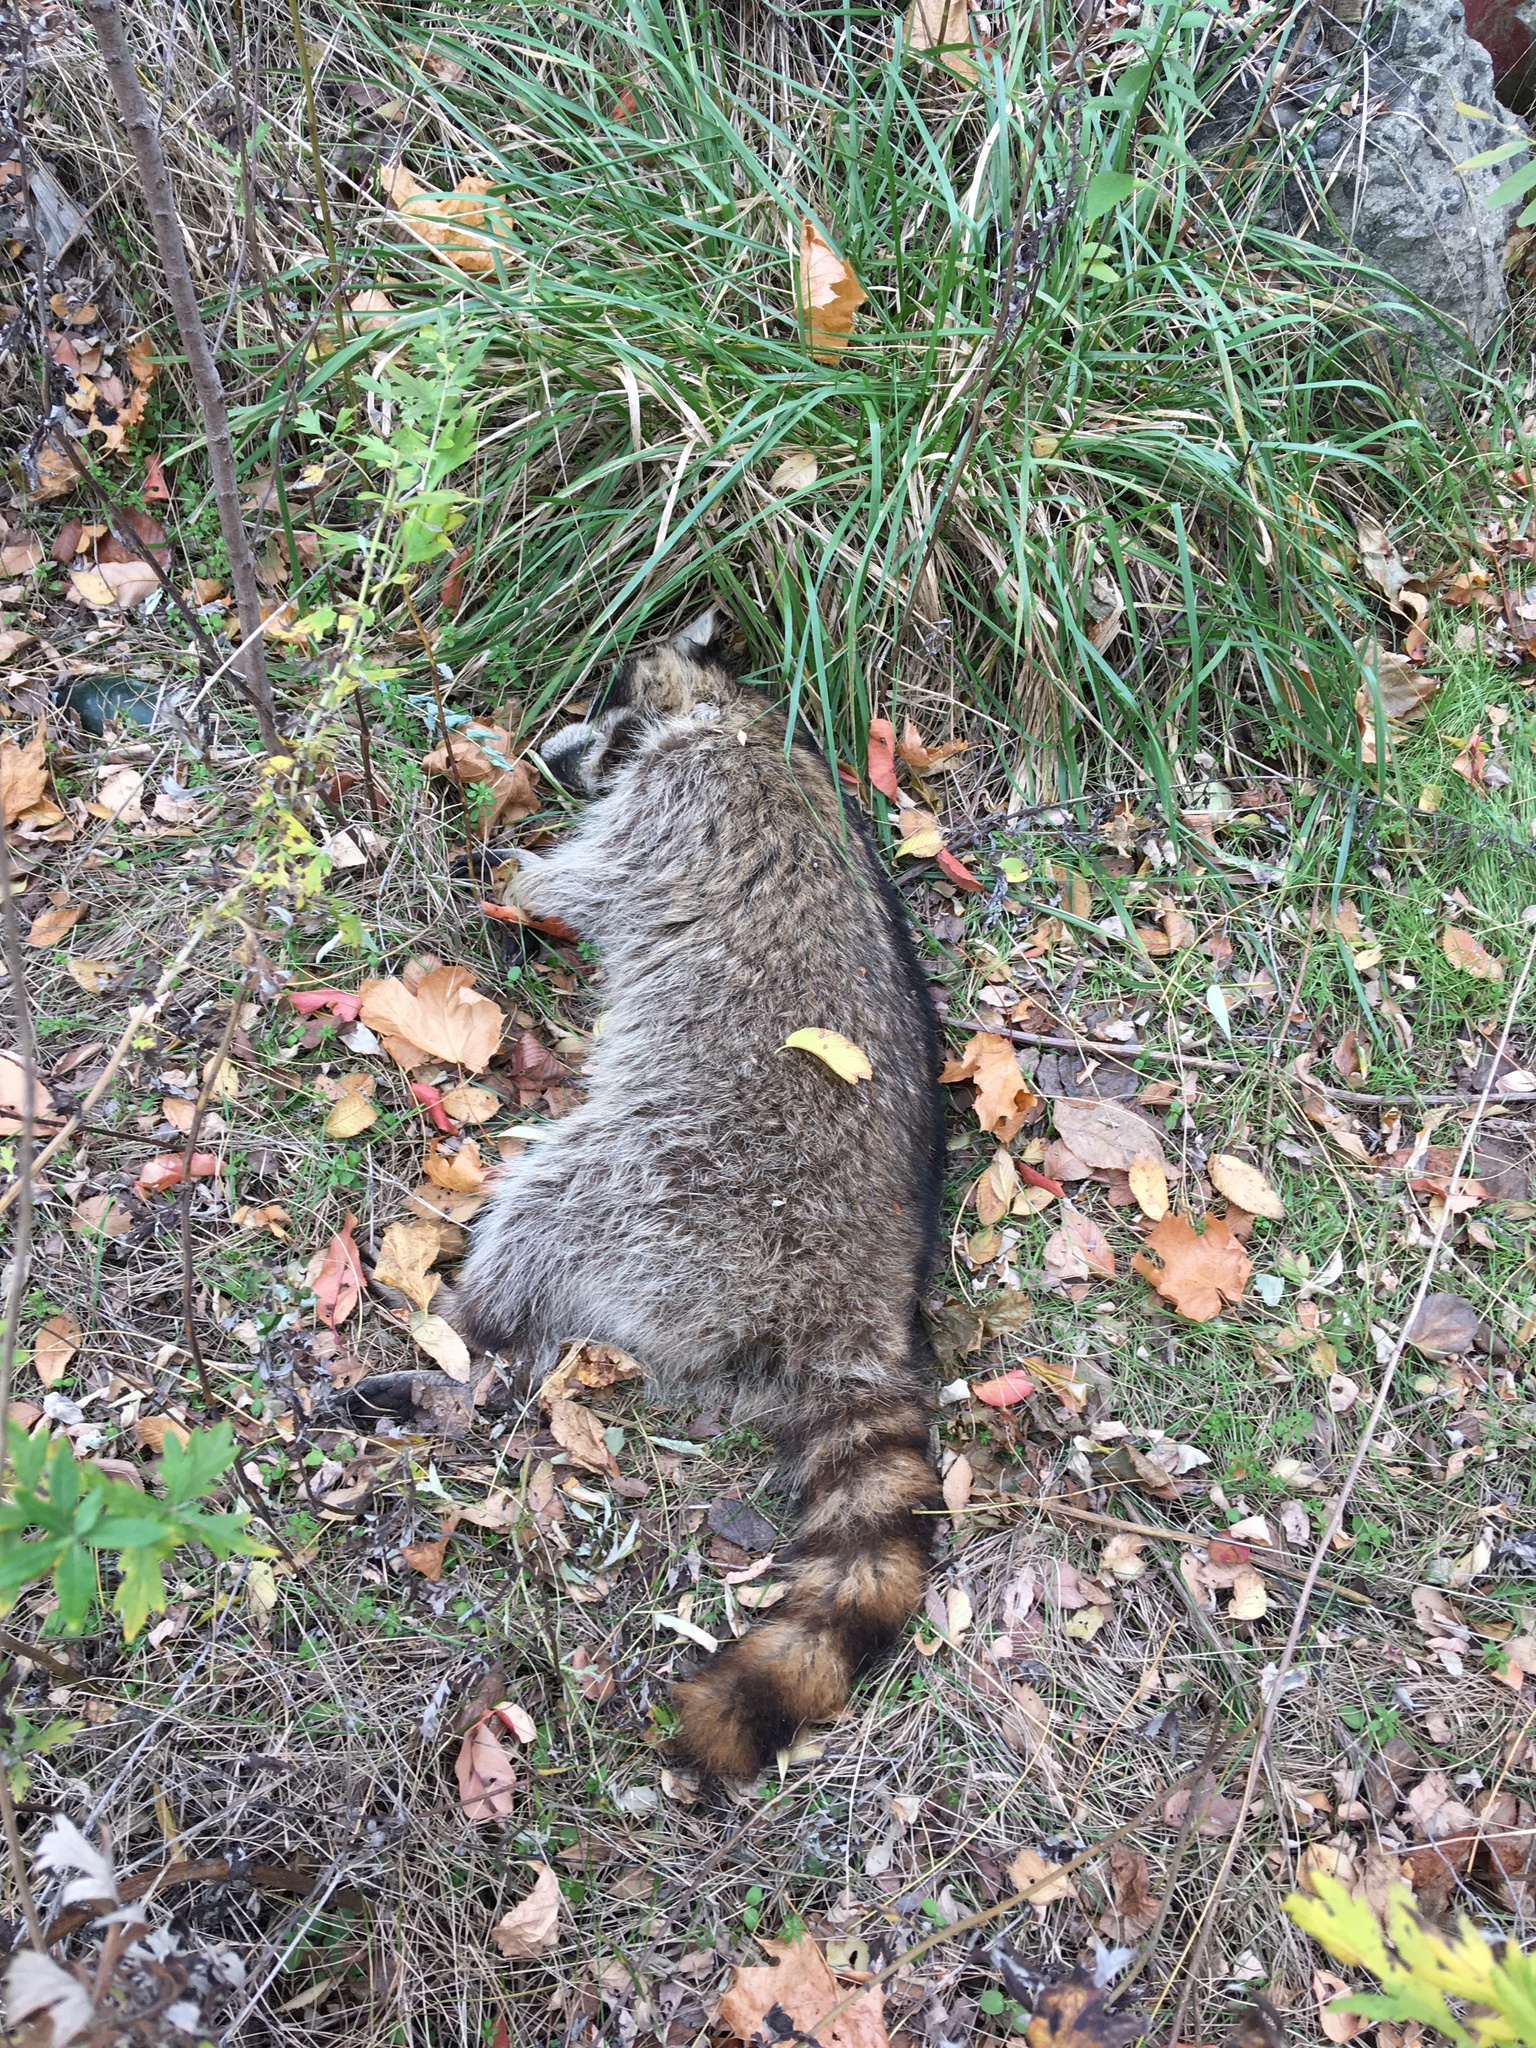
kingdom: Animalia
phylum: Chordata
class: Mammalia
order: Carnivora
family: Procyonidae
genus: Procyon
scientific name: Procyon lotor
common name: Raccoon
